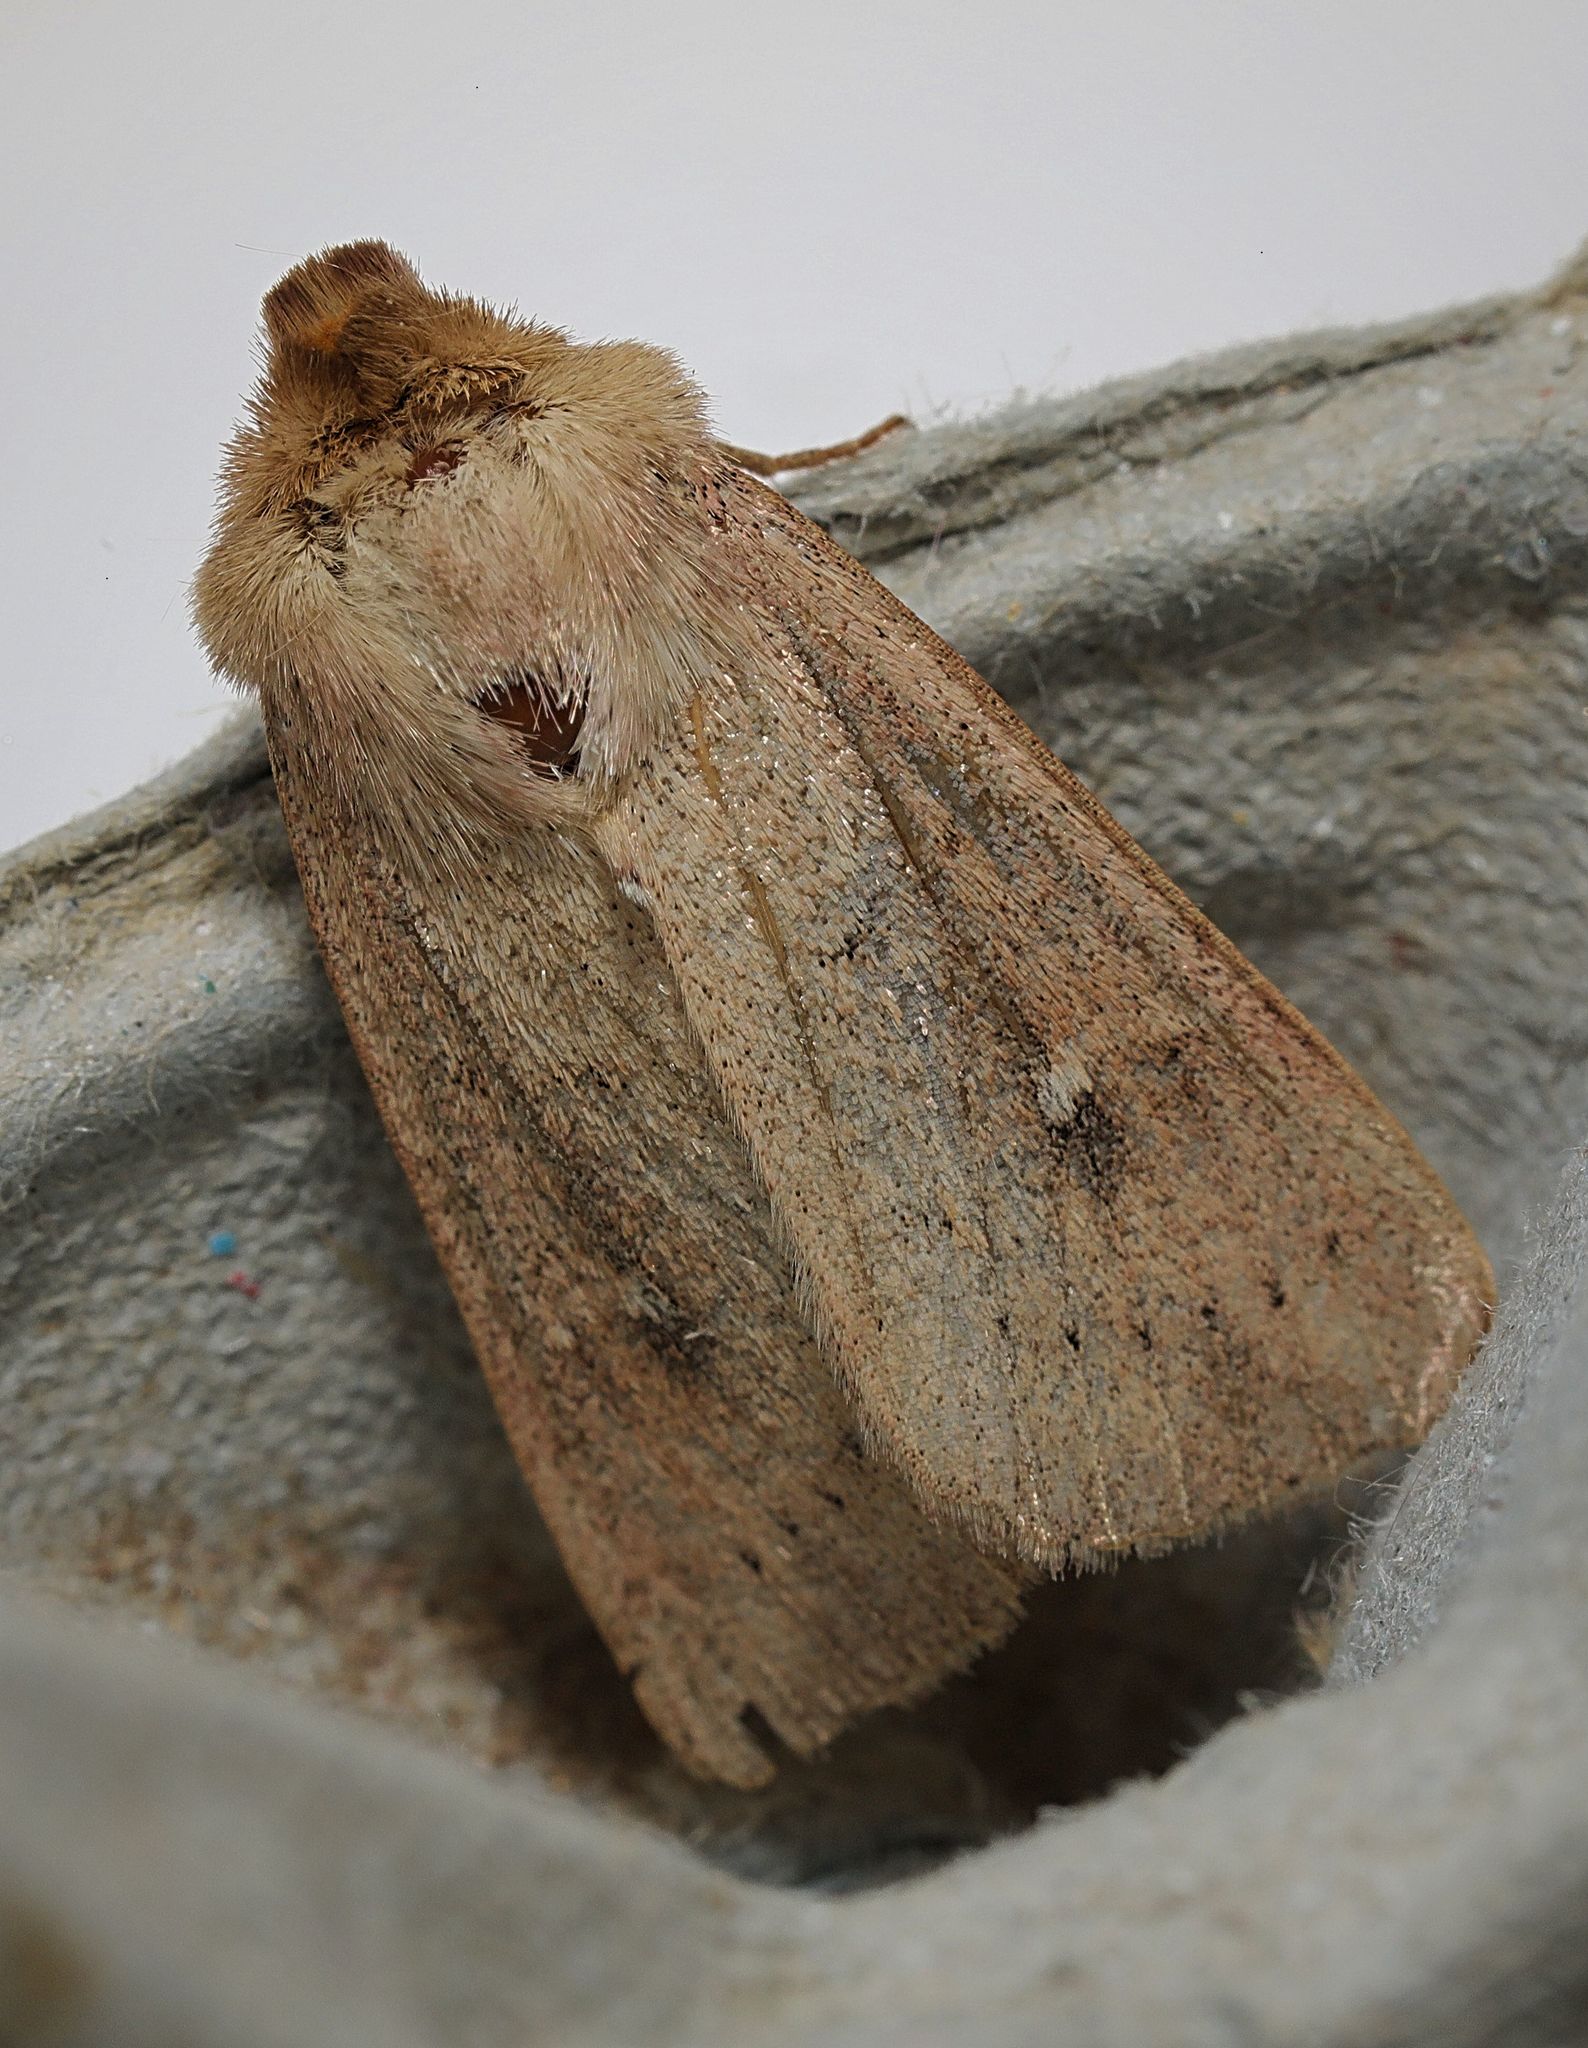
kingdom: Animalia
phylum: Arthropoda
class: Insecta
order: Lepidoptera
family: Noctuidae
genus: Mythimna
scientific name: Mythimna ferrago
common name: Clay
